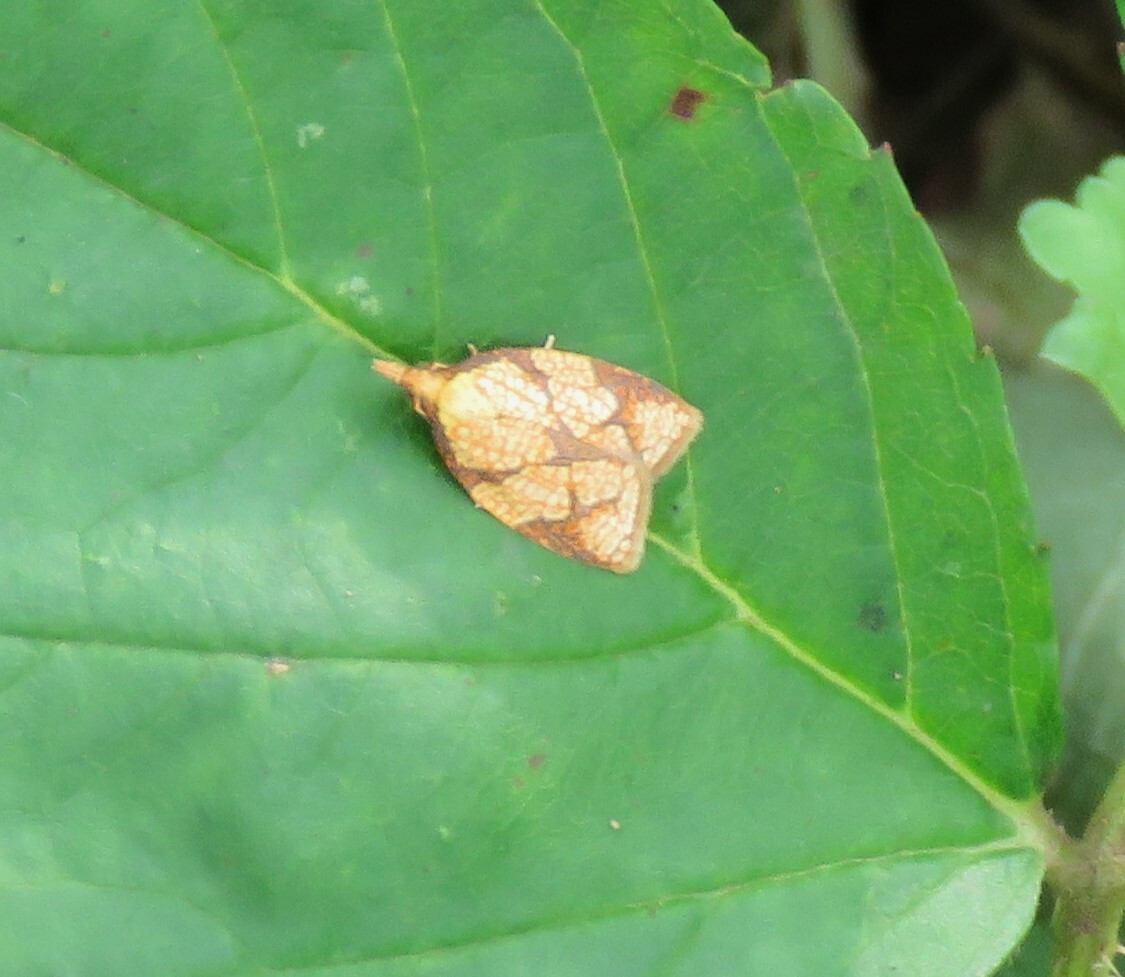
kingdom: Animalia
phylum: Arthropoda
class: Insecta
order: Lepidoptera
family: Tortricidae
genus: Cenopis
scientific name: Cenopis reticulatana
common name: Reticulated fruitworm moth
